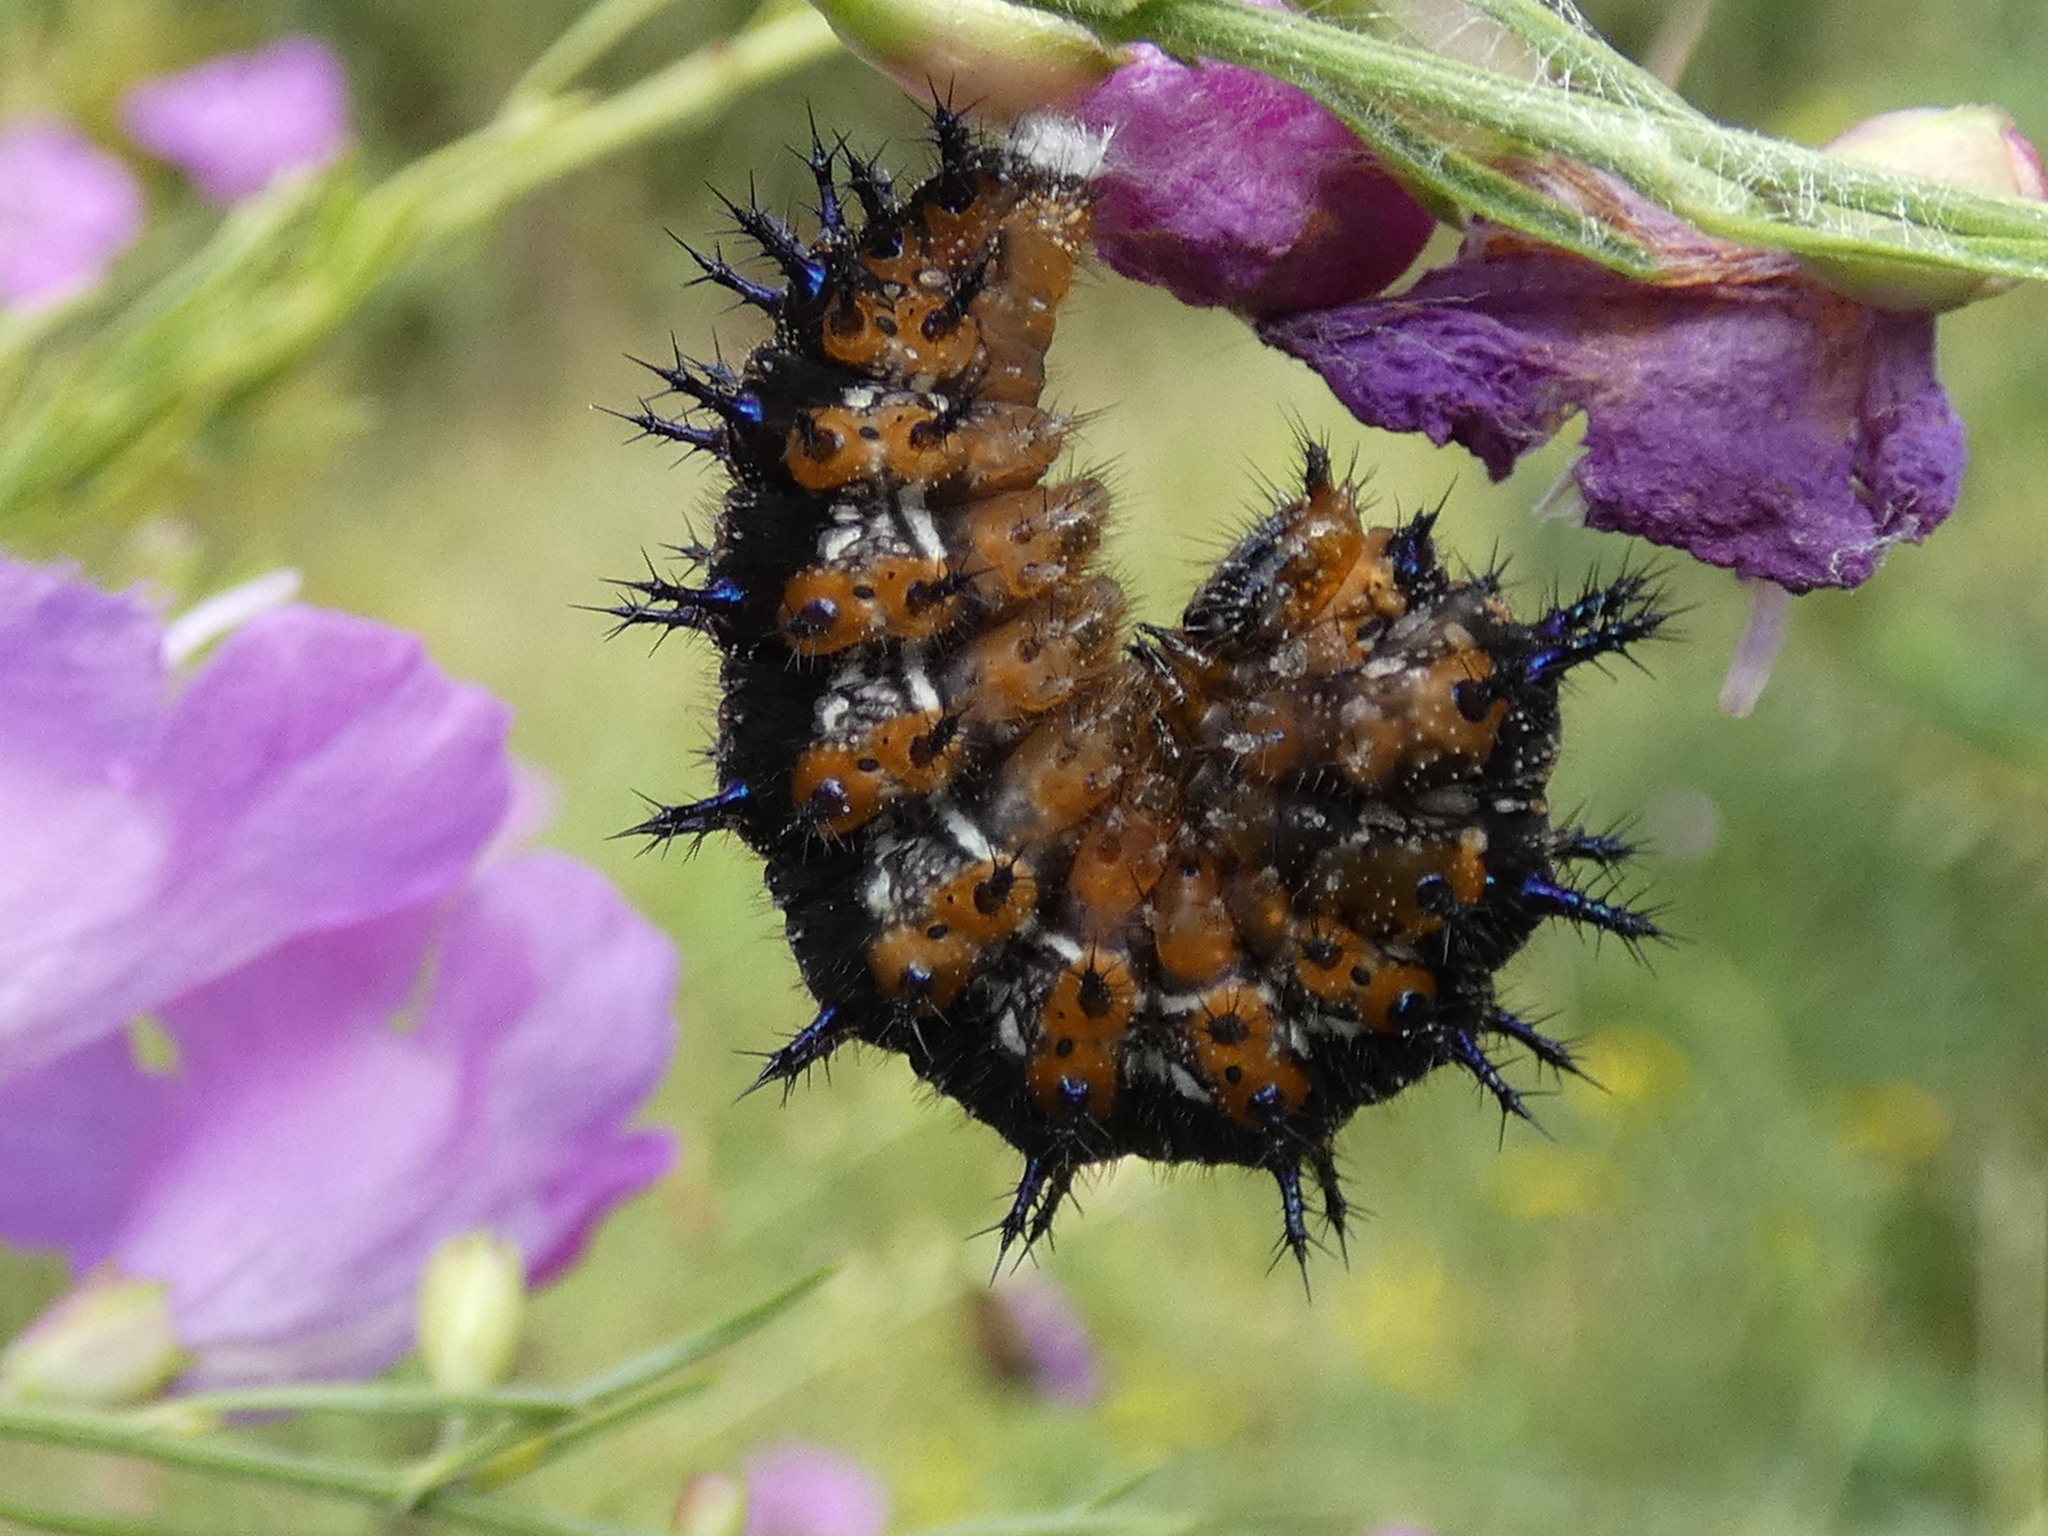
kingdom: Animalia
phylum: Arthropoda
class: Insecta
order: Lepidoptera
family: Nymphalidae
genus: Junonia
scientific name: Junonia coenia
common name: Common buckeye
